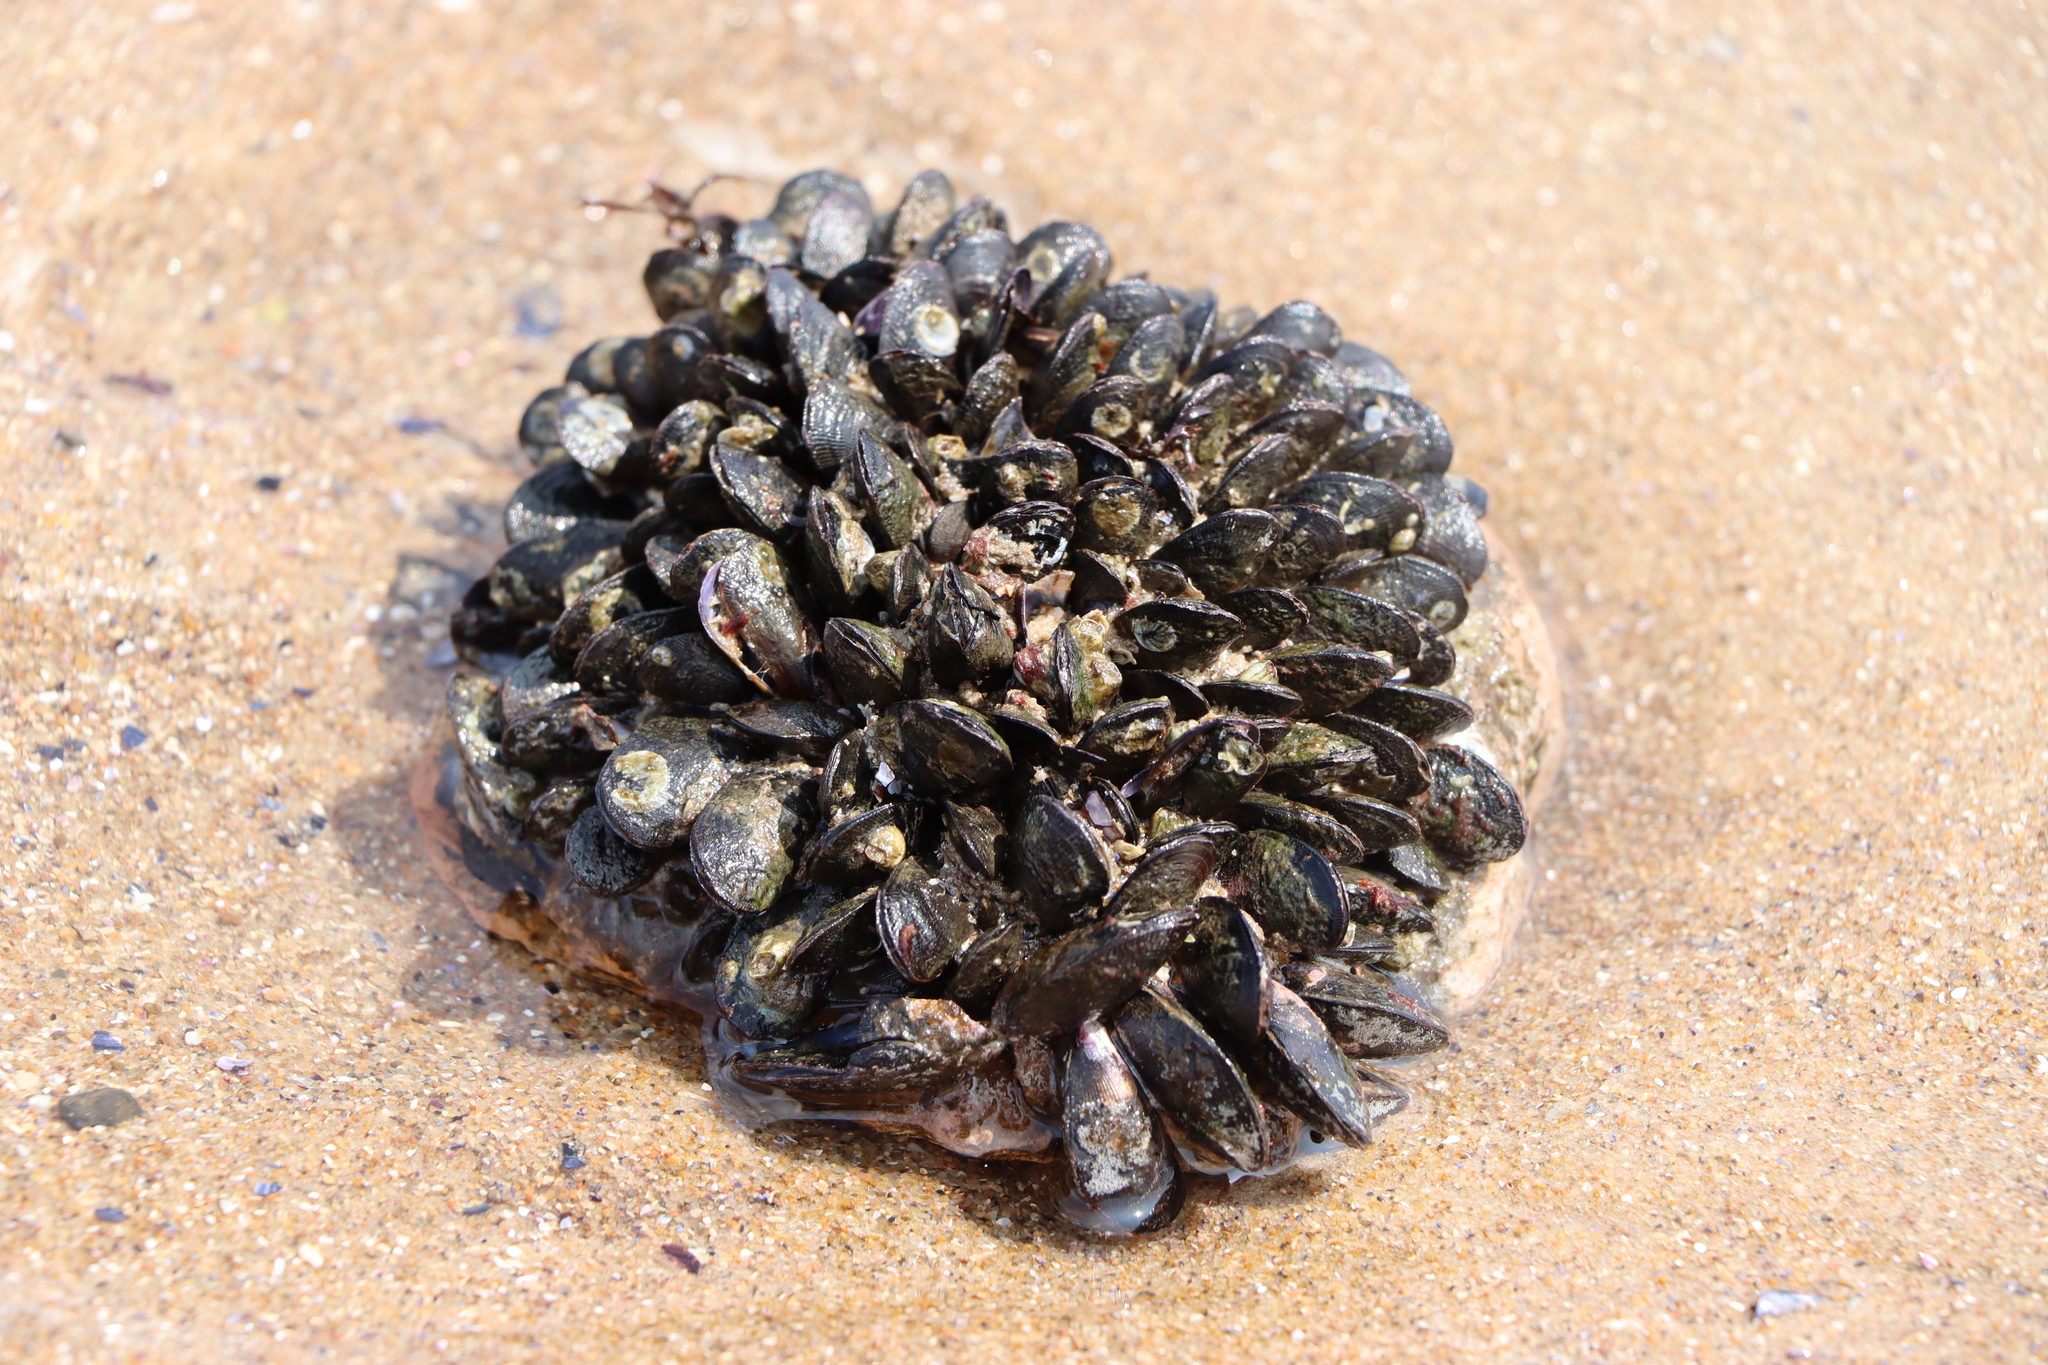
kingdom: Animalia
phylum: Mollusca
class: Bivalvia
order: Mytilida
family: Mytilidae
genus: Brachidontes
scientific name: Brachidontes rodriguezii
